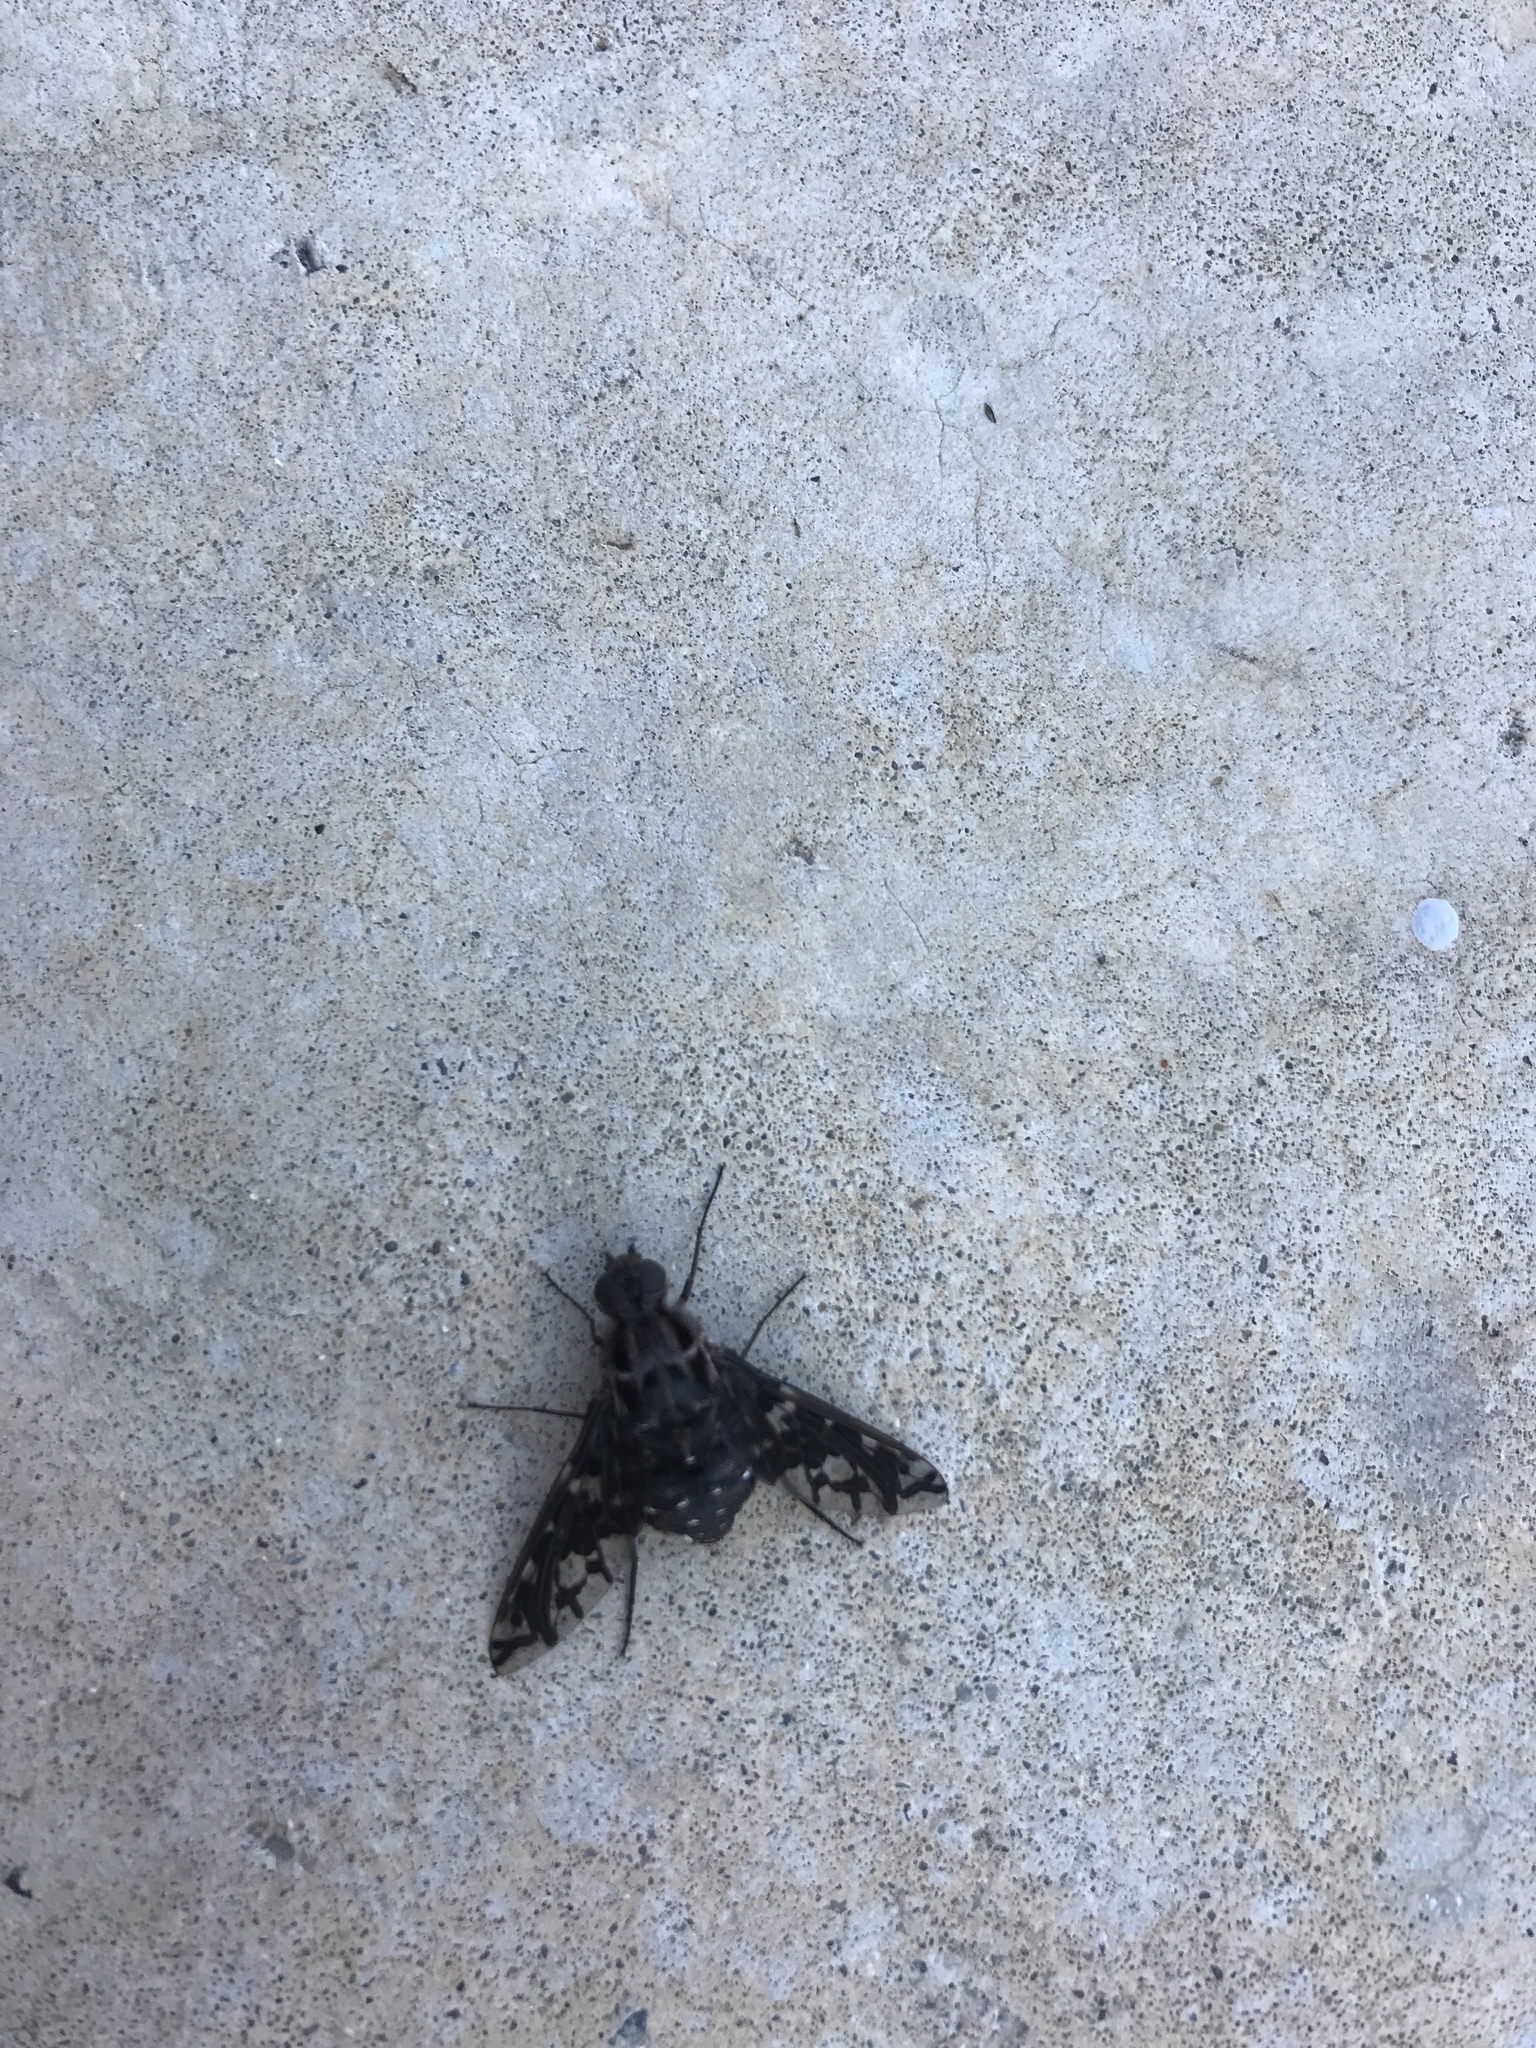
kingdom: Animalia
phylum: Arthropoda
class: Insecta
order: Diptera
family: Bombyliidae
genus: Xenox
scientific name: Xenox tigrinus
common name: Tiger bee fly
